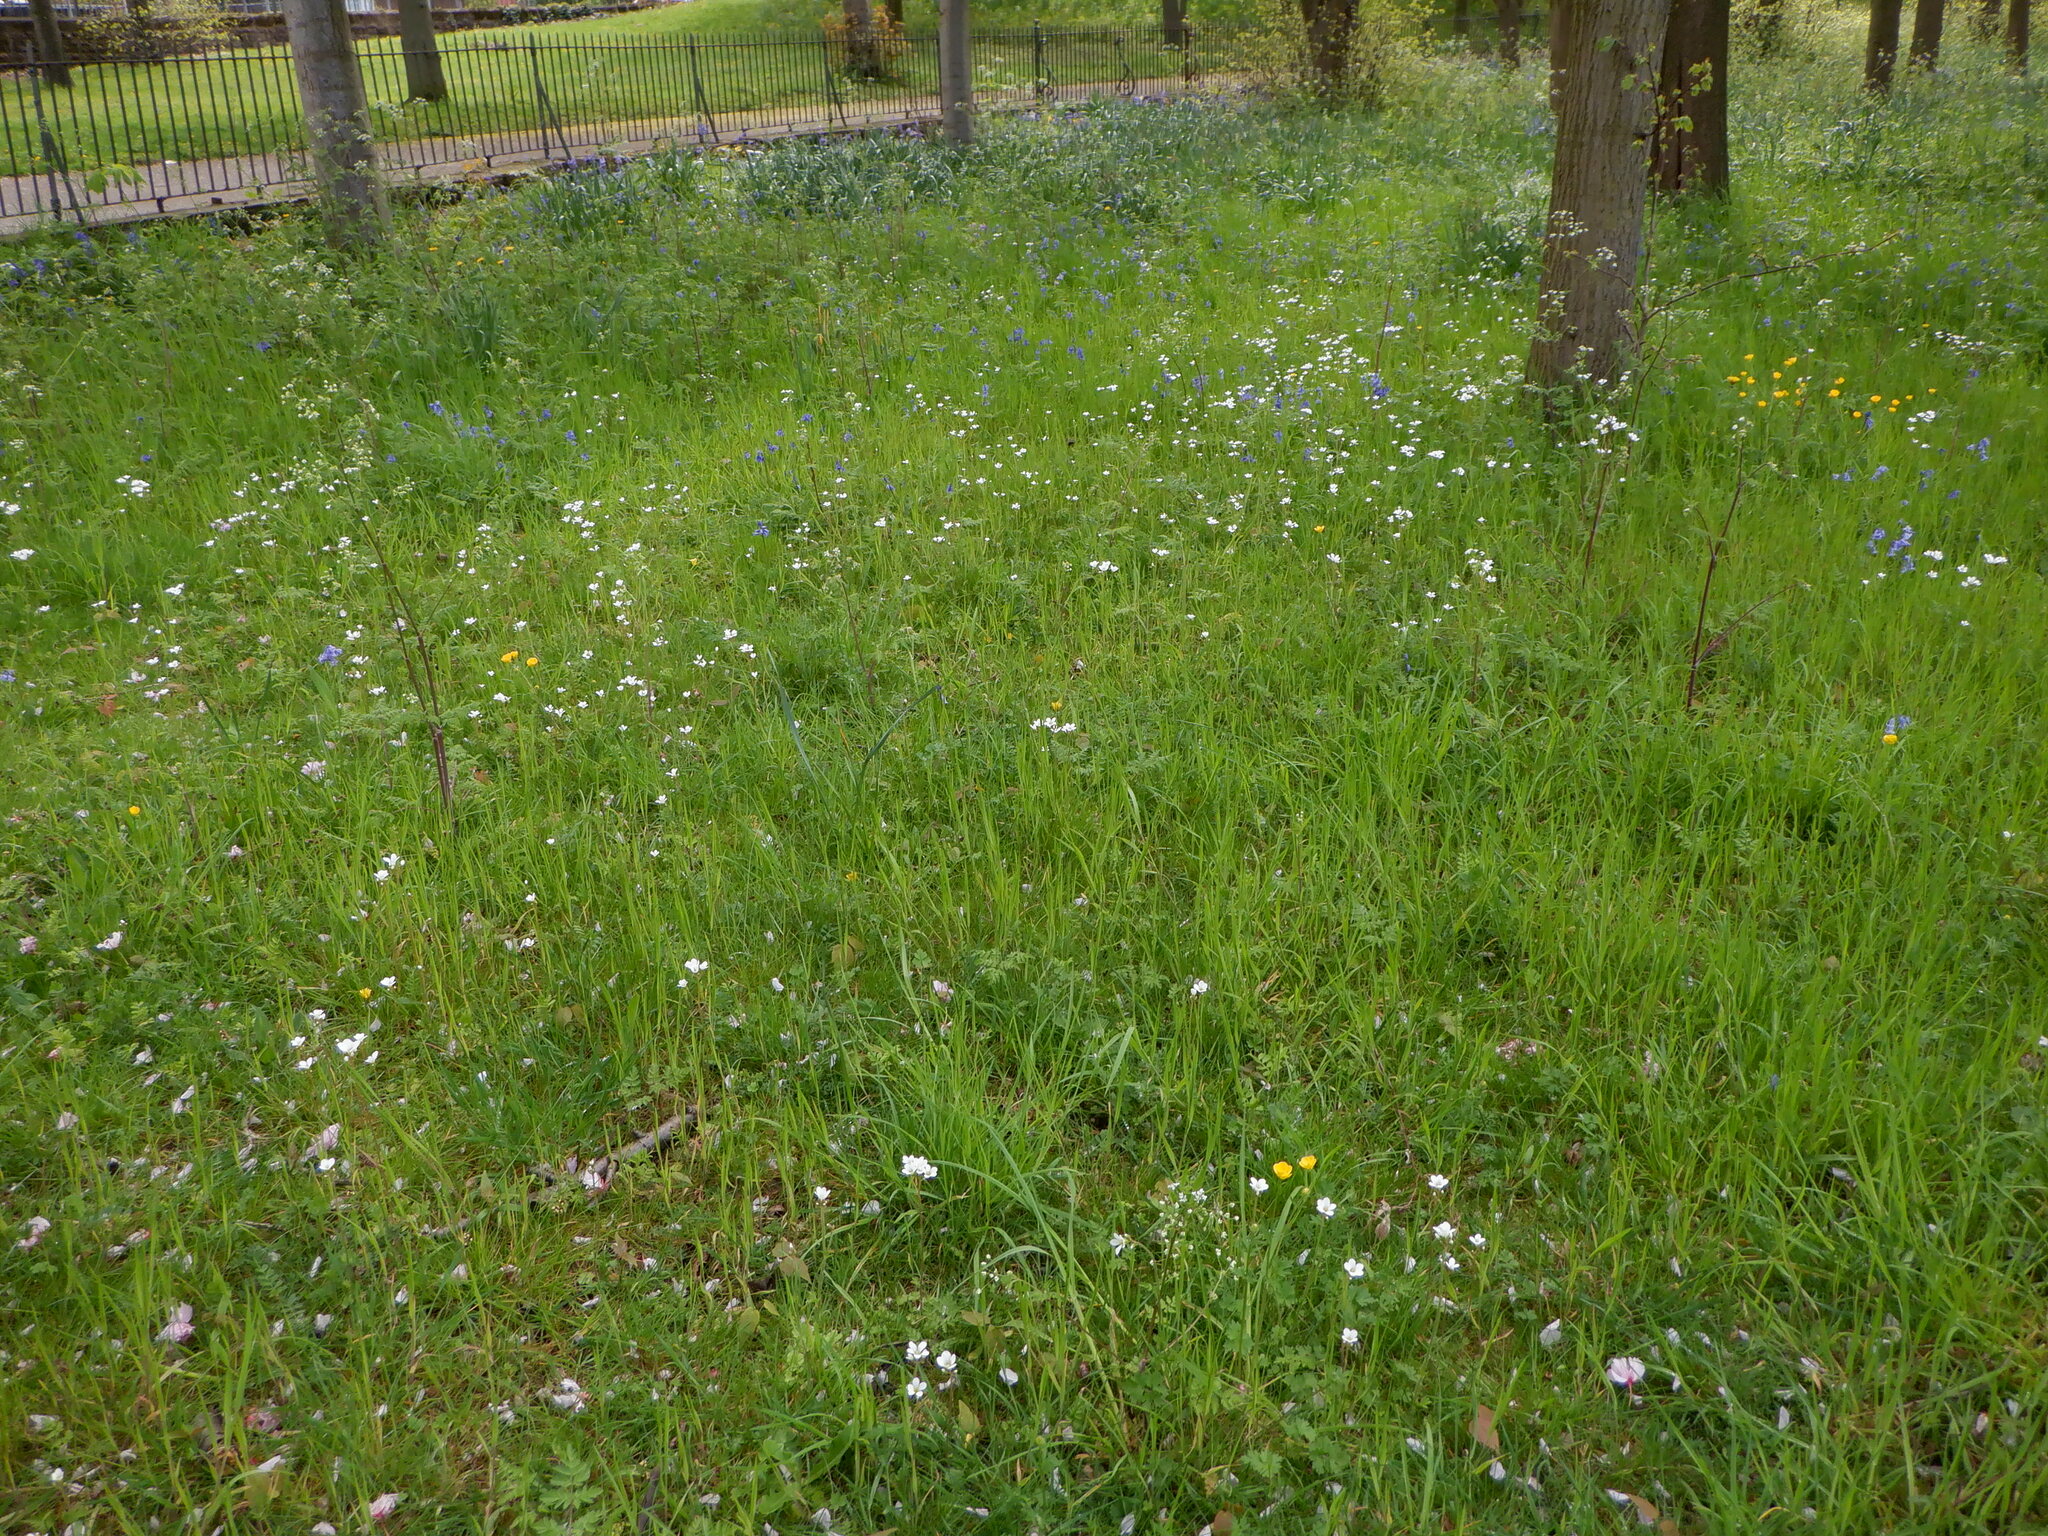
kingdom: Plantae
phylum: Tracheophyta
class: Magnoliopsida
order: Saxifragales
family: Saxifragaceae
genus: Saxifraga
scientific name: Saxifraga granulata
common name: Meadow saxifrage
